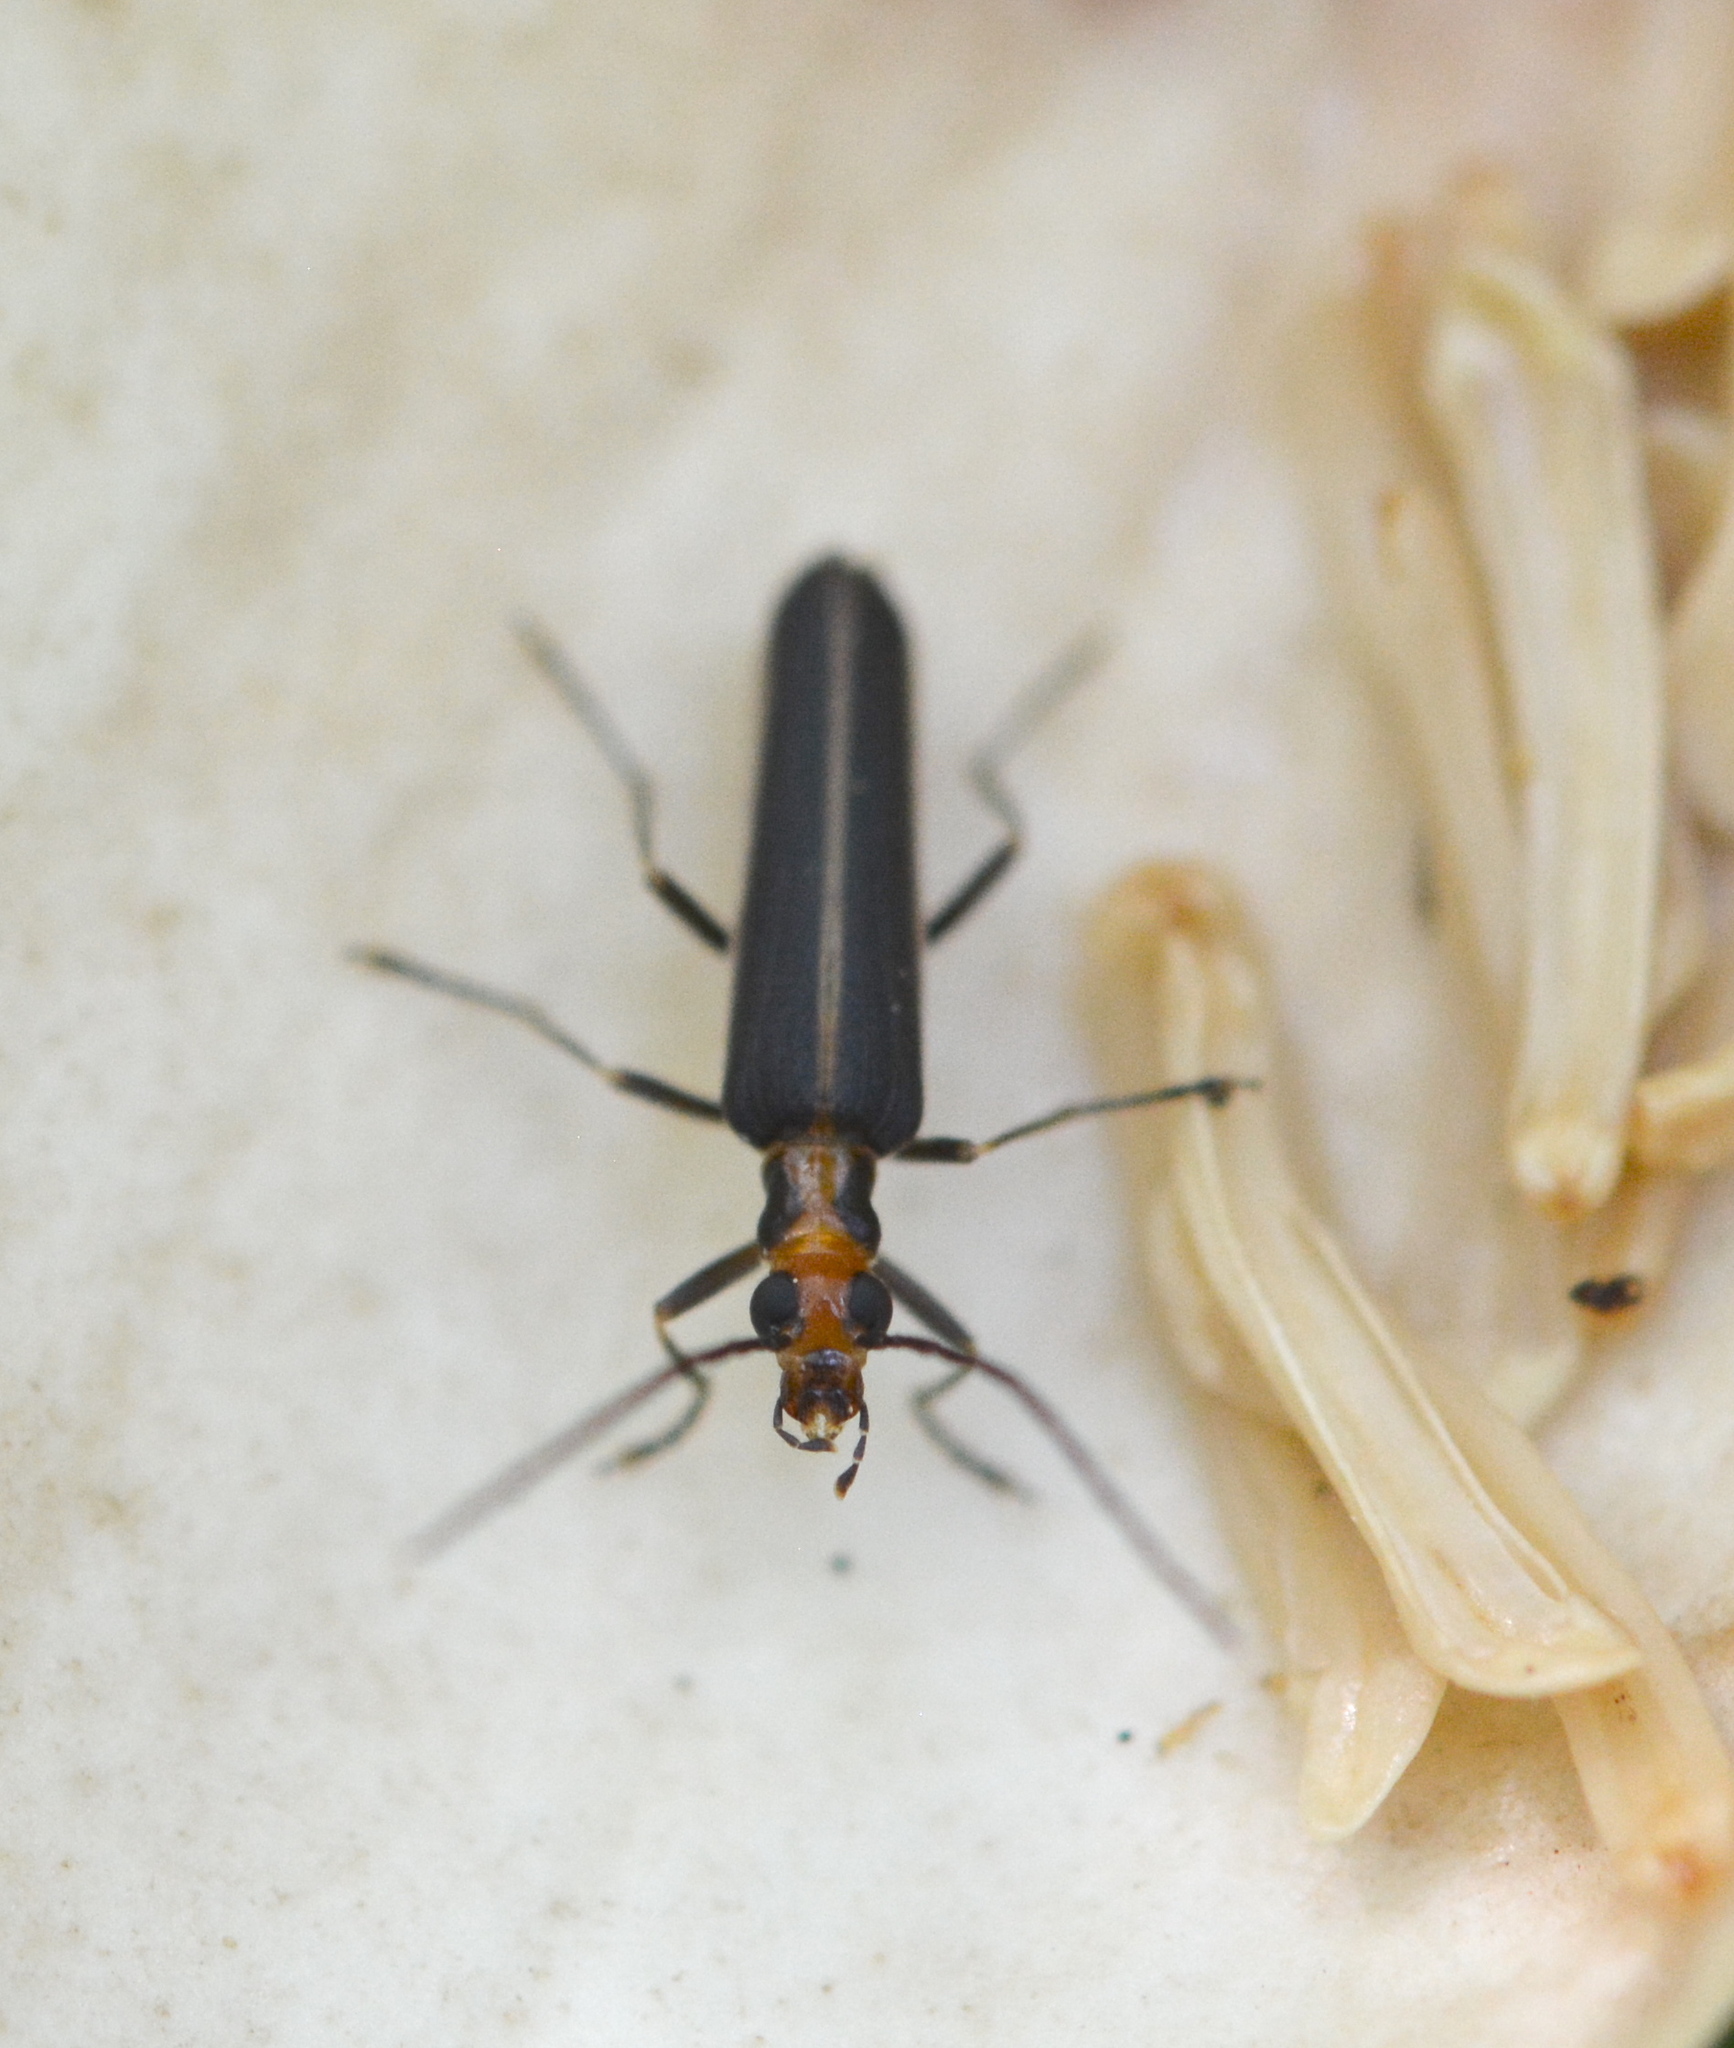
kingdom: Animalia
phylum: Arthropoda
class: Insecta
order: Coleoptera
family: Oedemeridae
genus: Nacerdes
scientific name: Nacerdes
